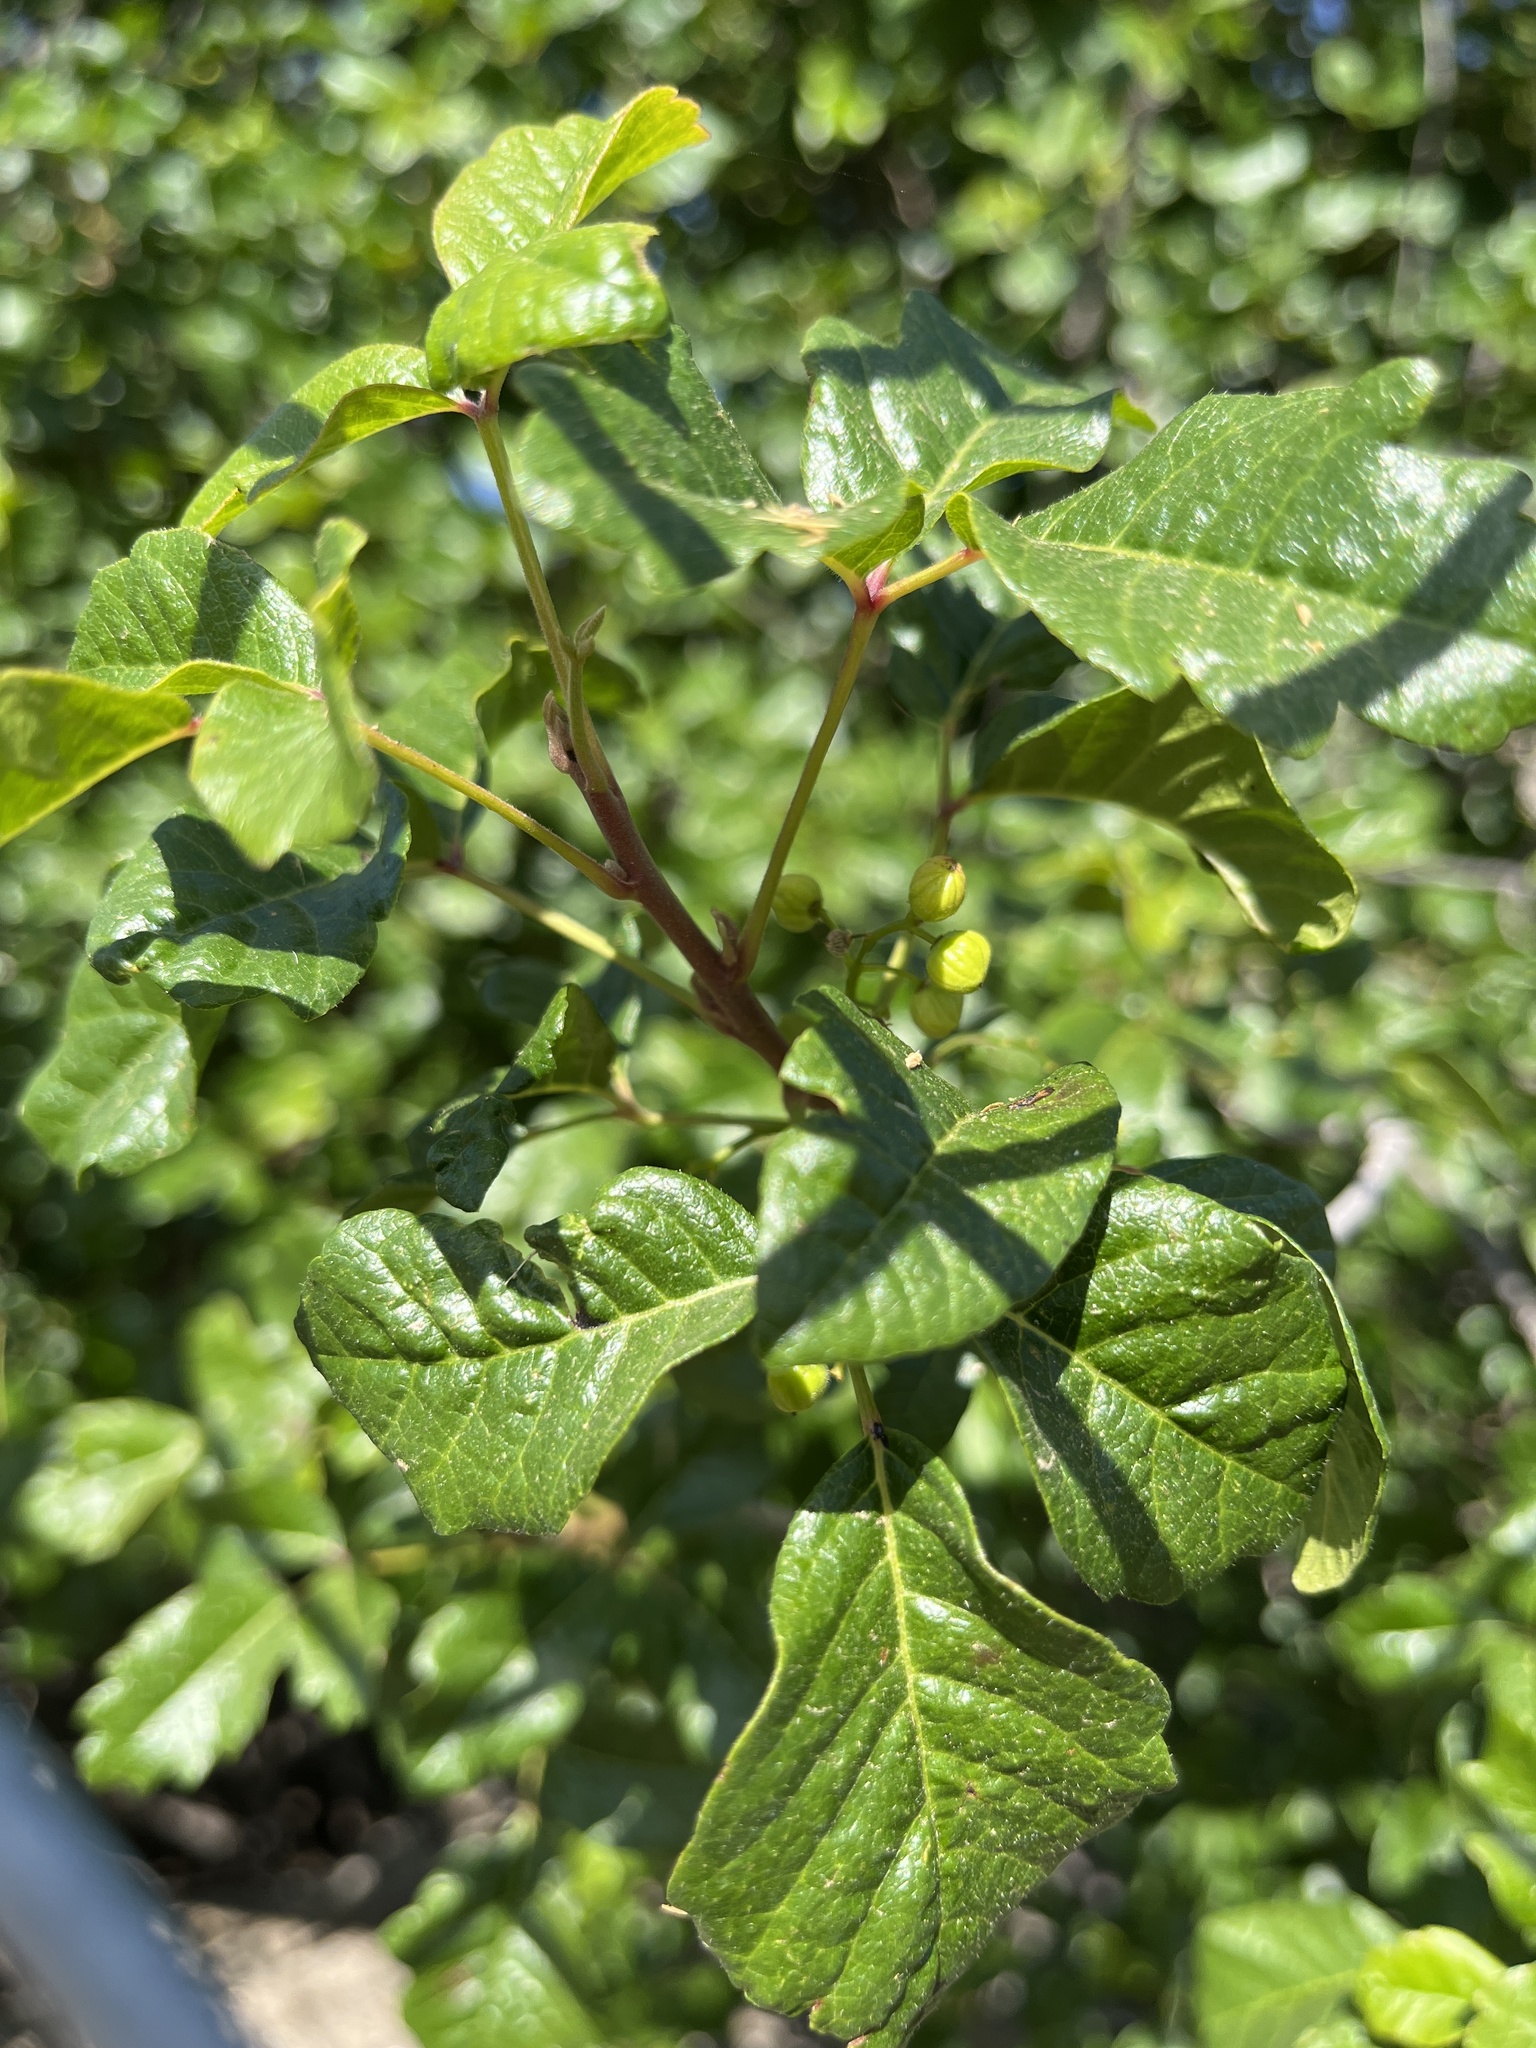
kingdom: Plantae
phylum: Tracheophyta
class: Magnoliopsida
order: Sapindales
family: Anacardiaceae
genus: Toxicodendron
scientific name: Toxicodendron diversilobum
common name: Pacific poison-oak
